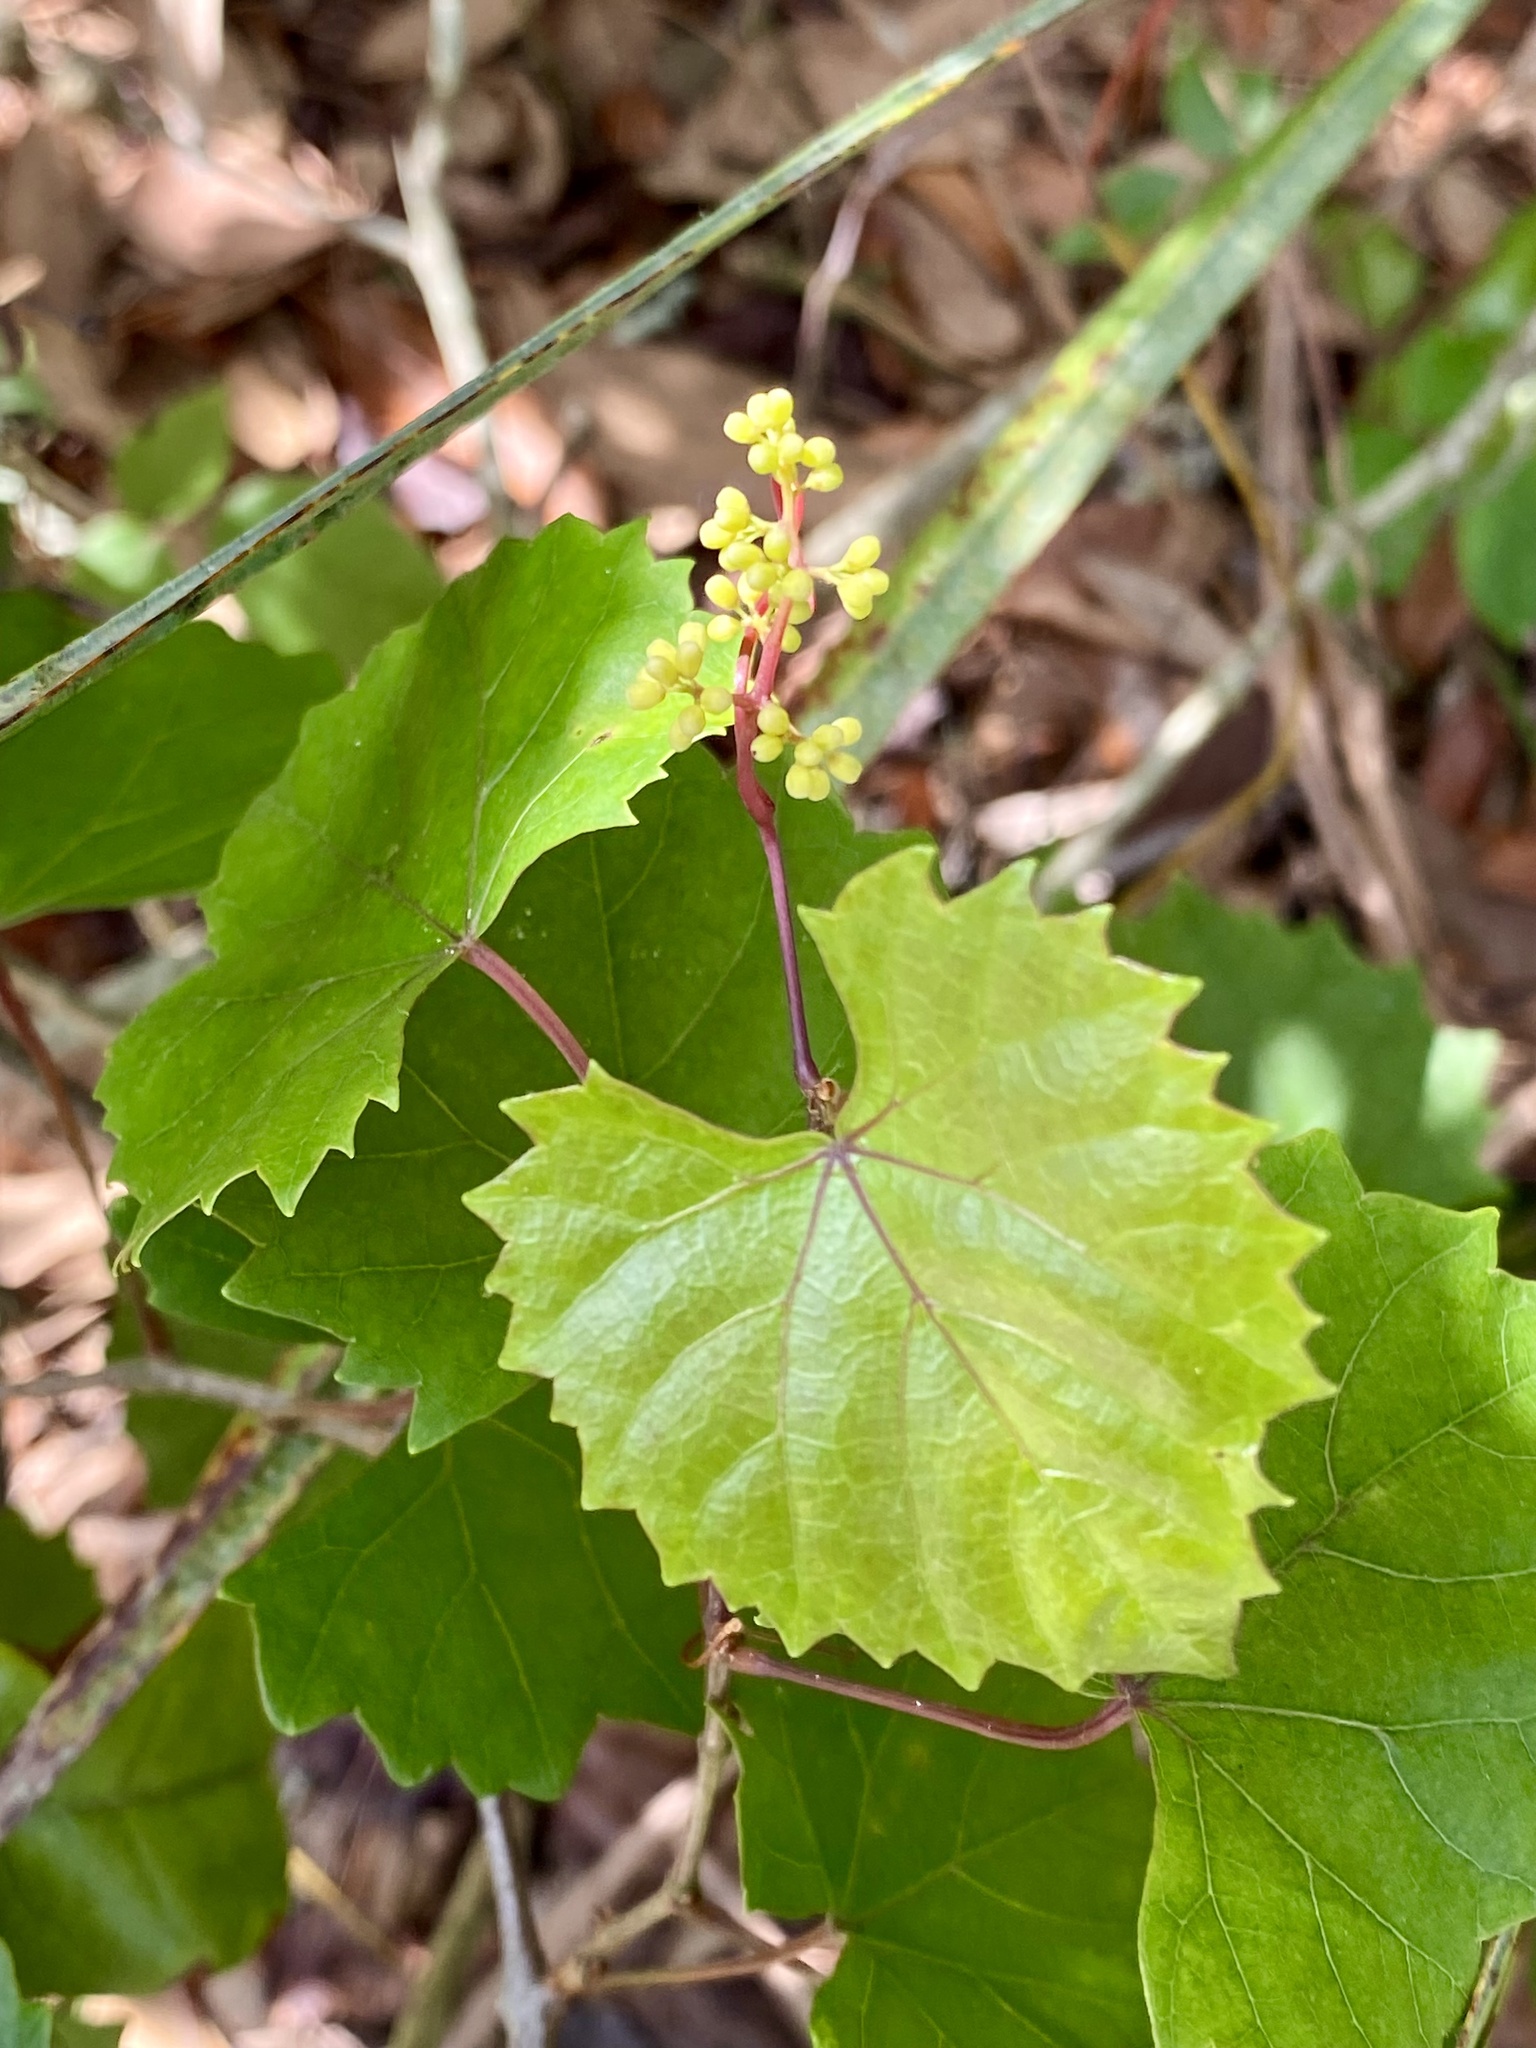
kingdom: Plantae
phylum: Tracheophyta
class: Magnoliopsida
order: Vitales
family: Vitaceae
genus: Vitis
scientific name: Vitis rotundifolia
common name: Muscadine grape
